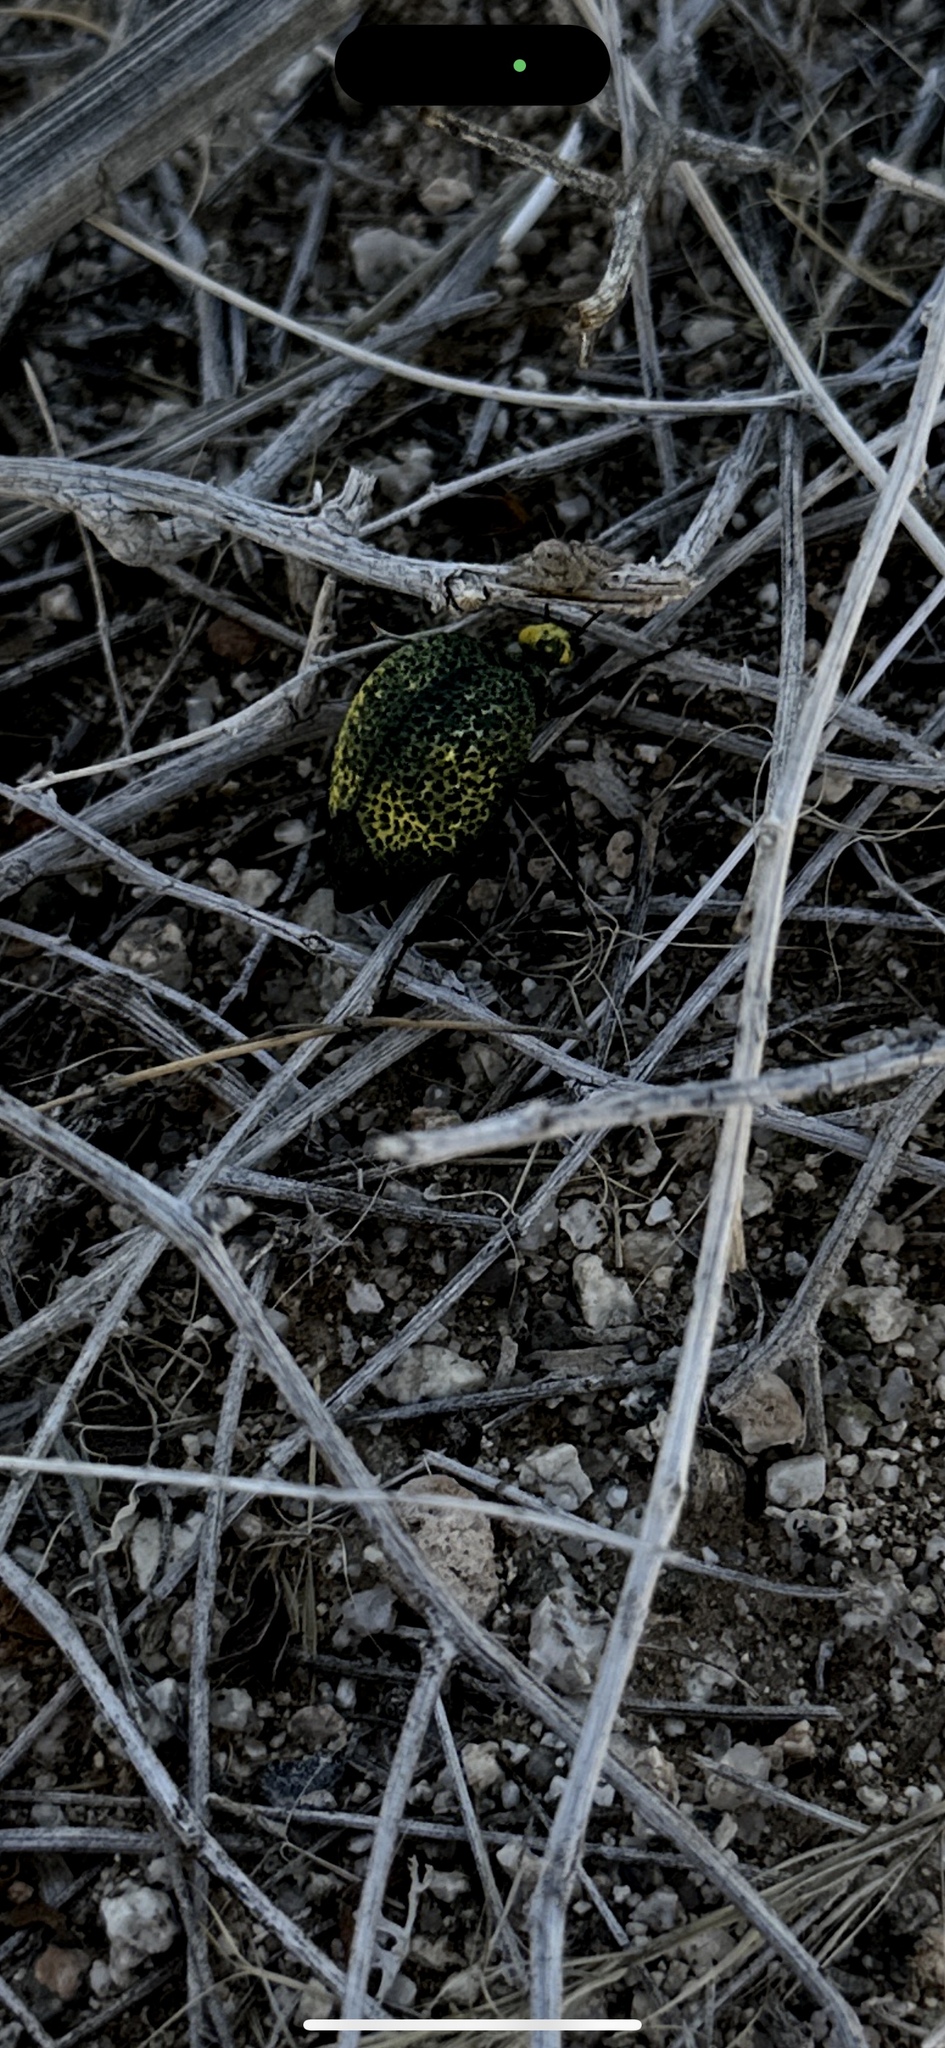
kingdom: Animalia
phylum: Arthropoda
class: Insecta
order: Coleoptera
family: Meloidae
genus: Cysteodemus
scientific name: Cysteodemus armatus
